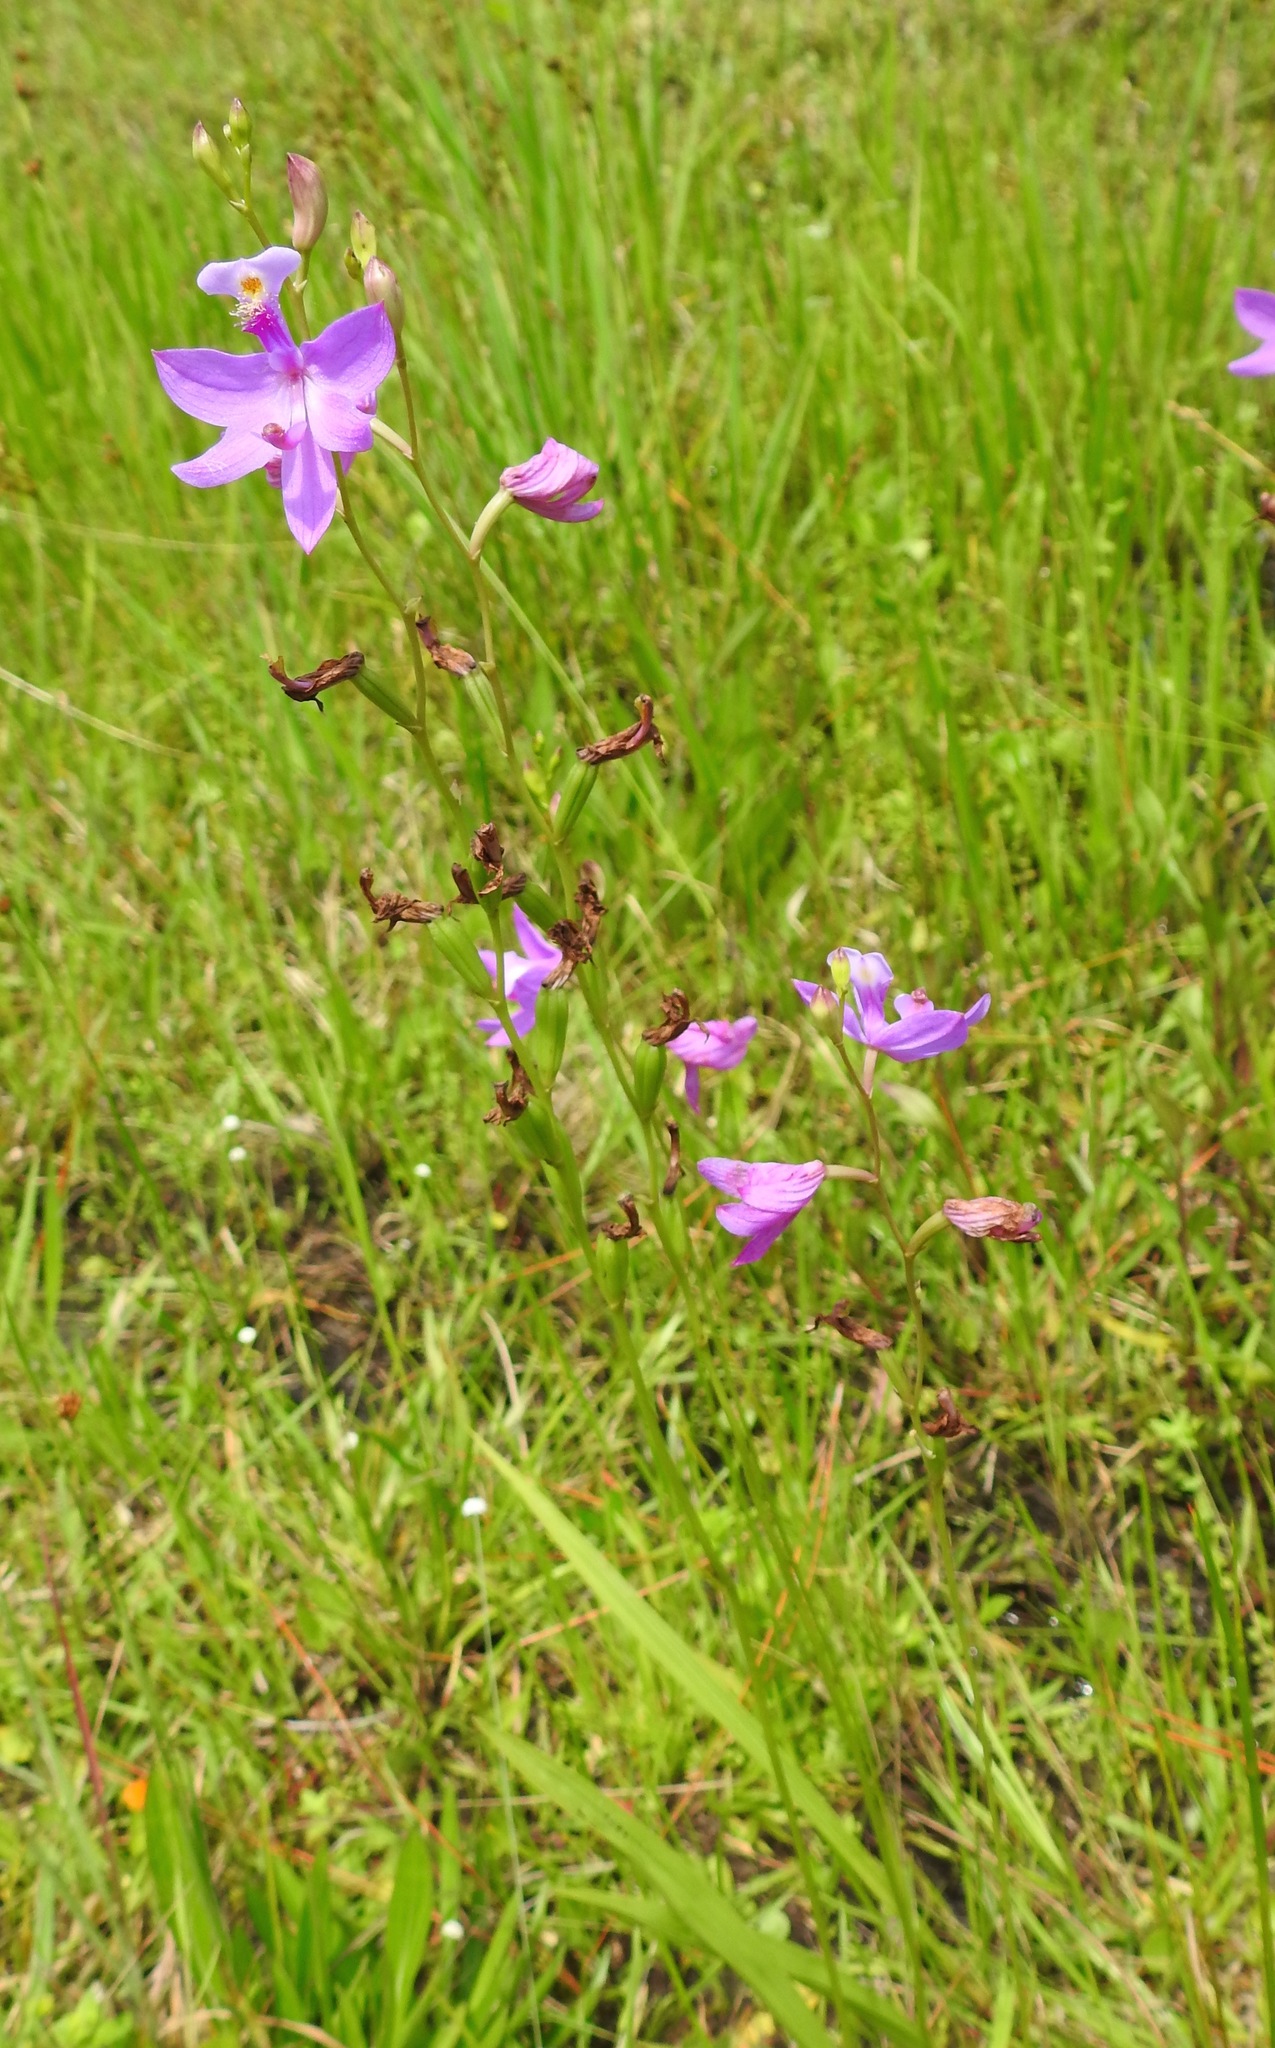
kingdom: Plantae
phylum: Tracheophyta
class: Liliopsida
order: Asparagales
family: Orchidaceae
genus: Calopogon
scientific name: Calopogon tuberosus
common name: Grass-pink
